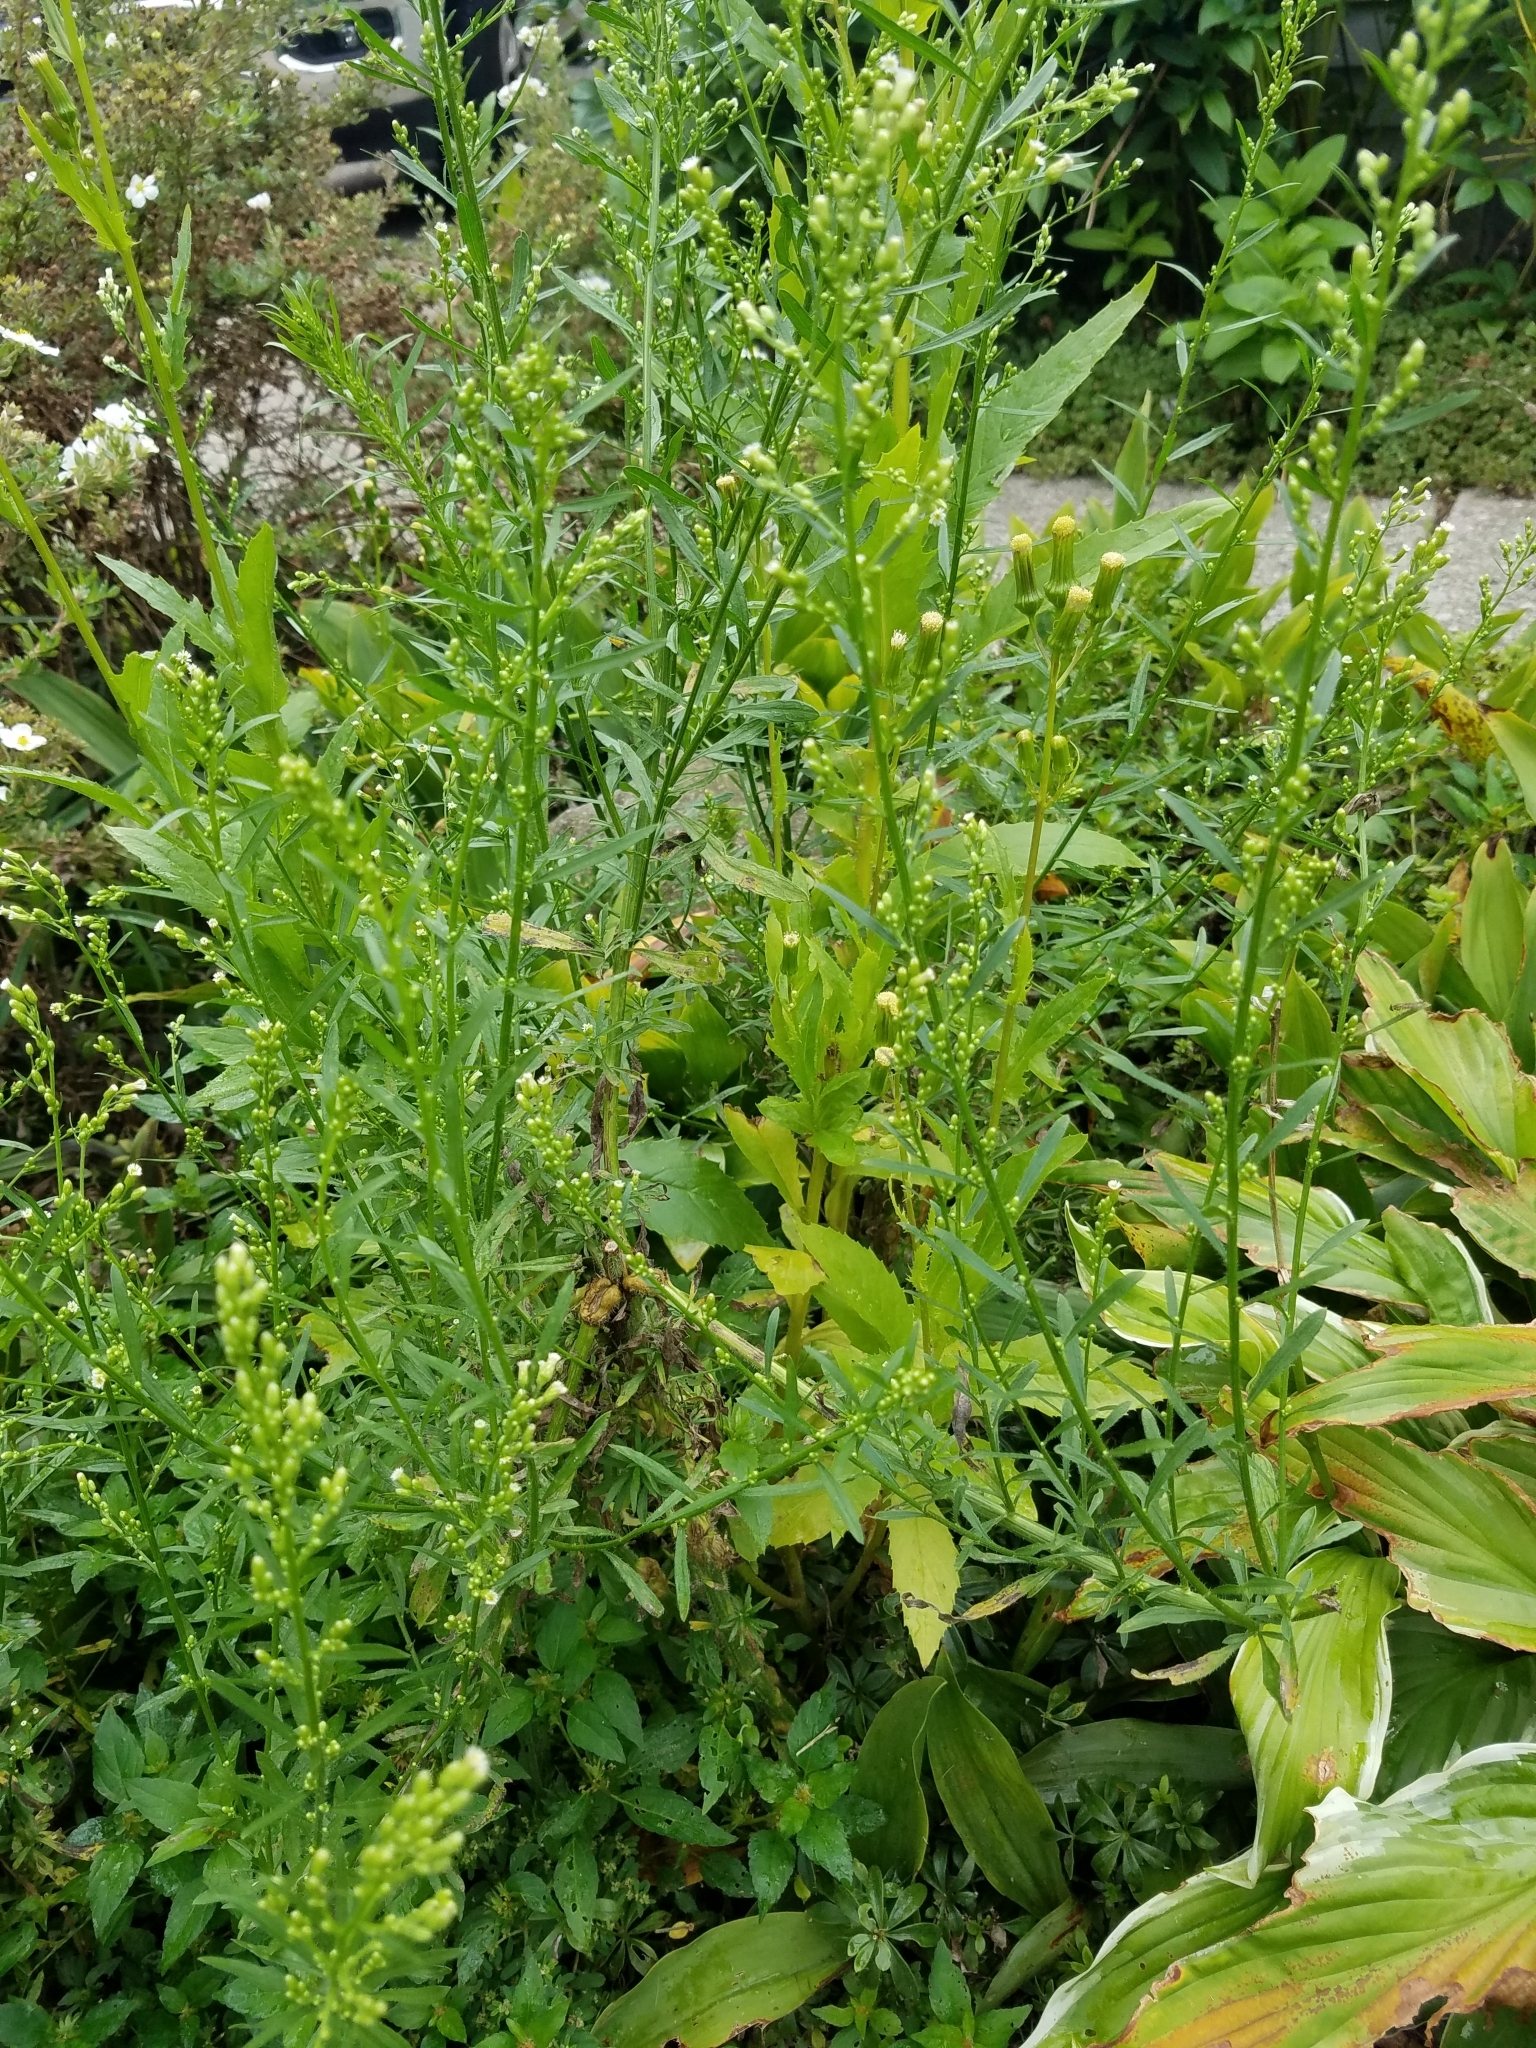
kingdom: Plantae
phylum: Tracheophyta
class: Magnoliopsida
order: Asterales
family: Asteraceae
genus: Erigeron
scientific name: Erigeron canadensis
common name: Canadian fleabane
